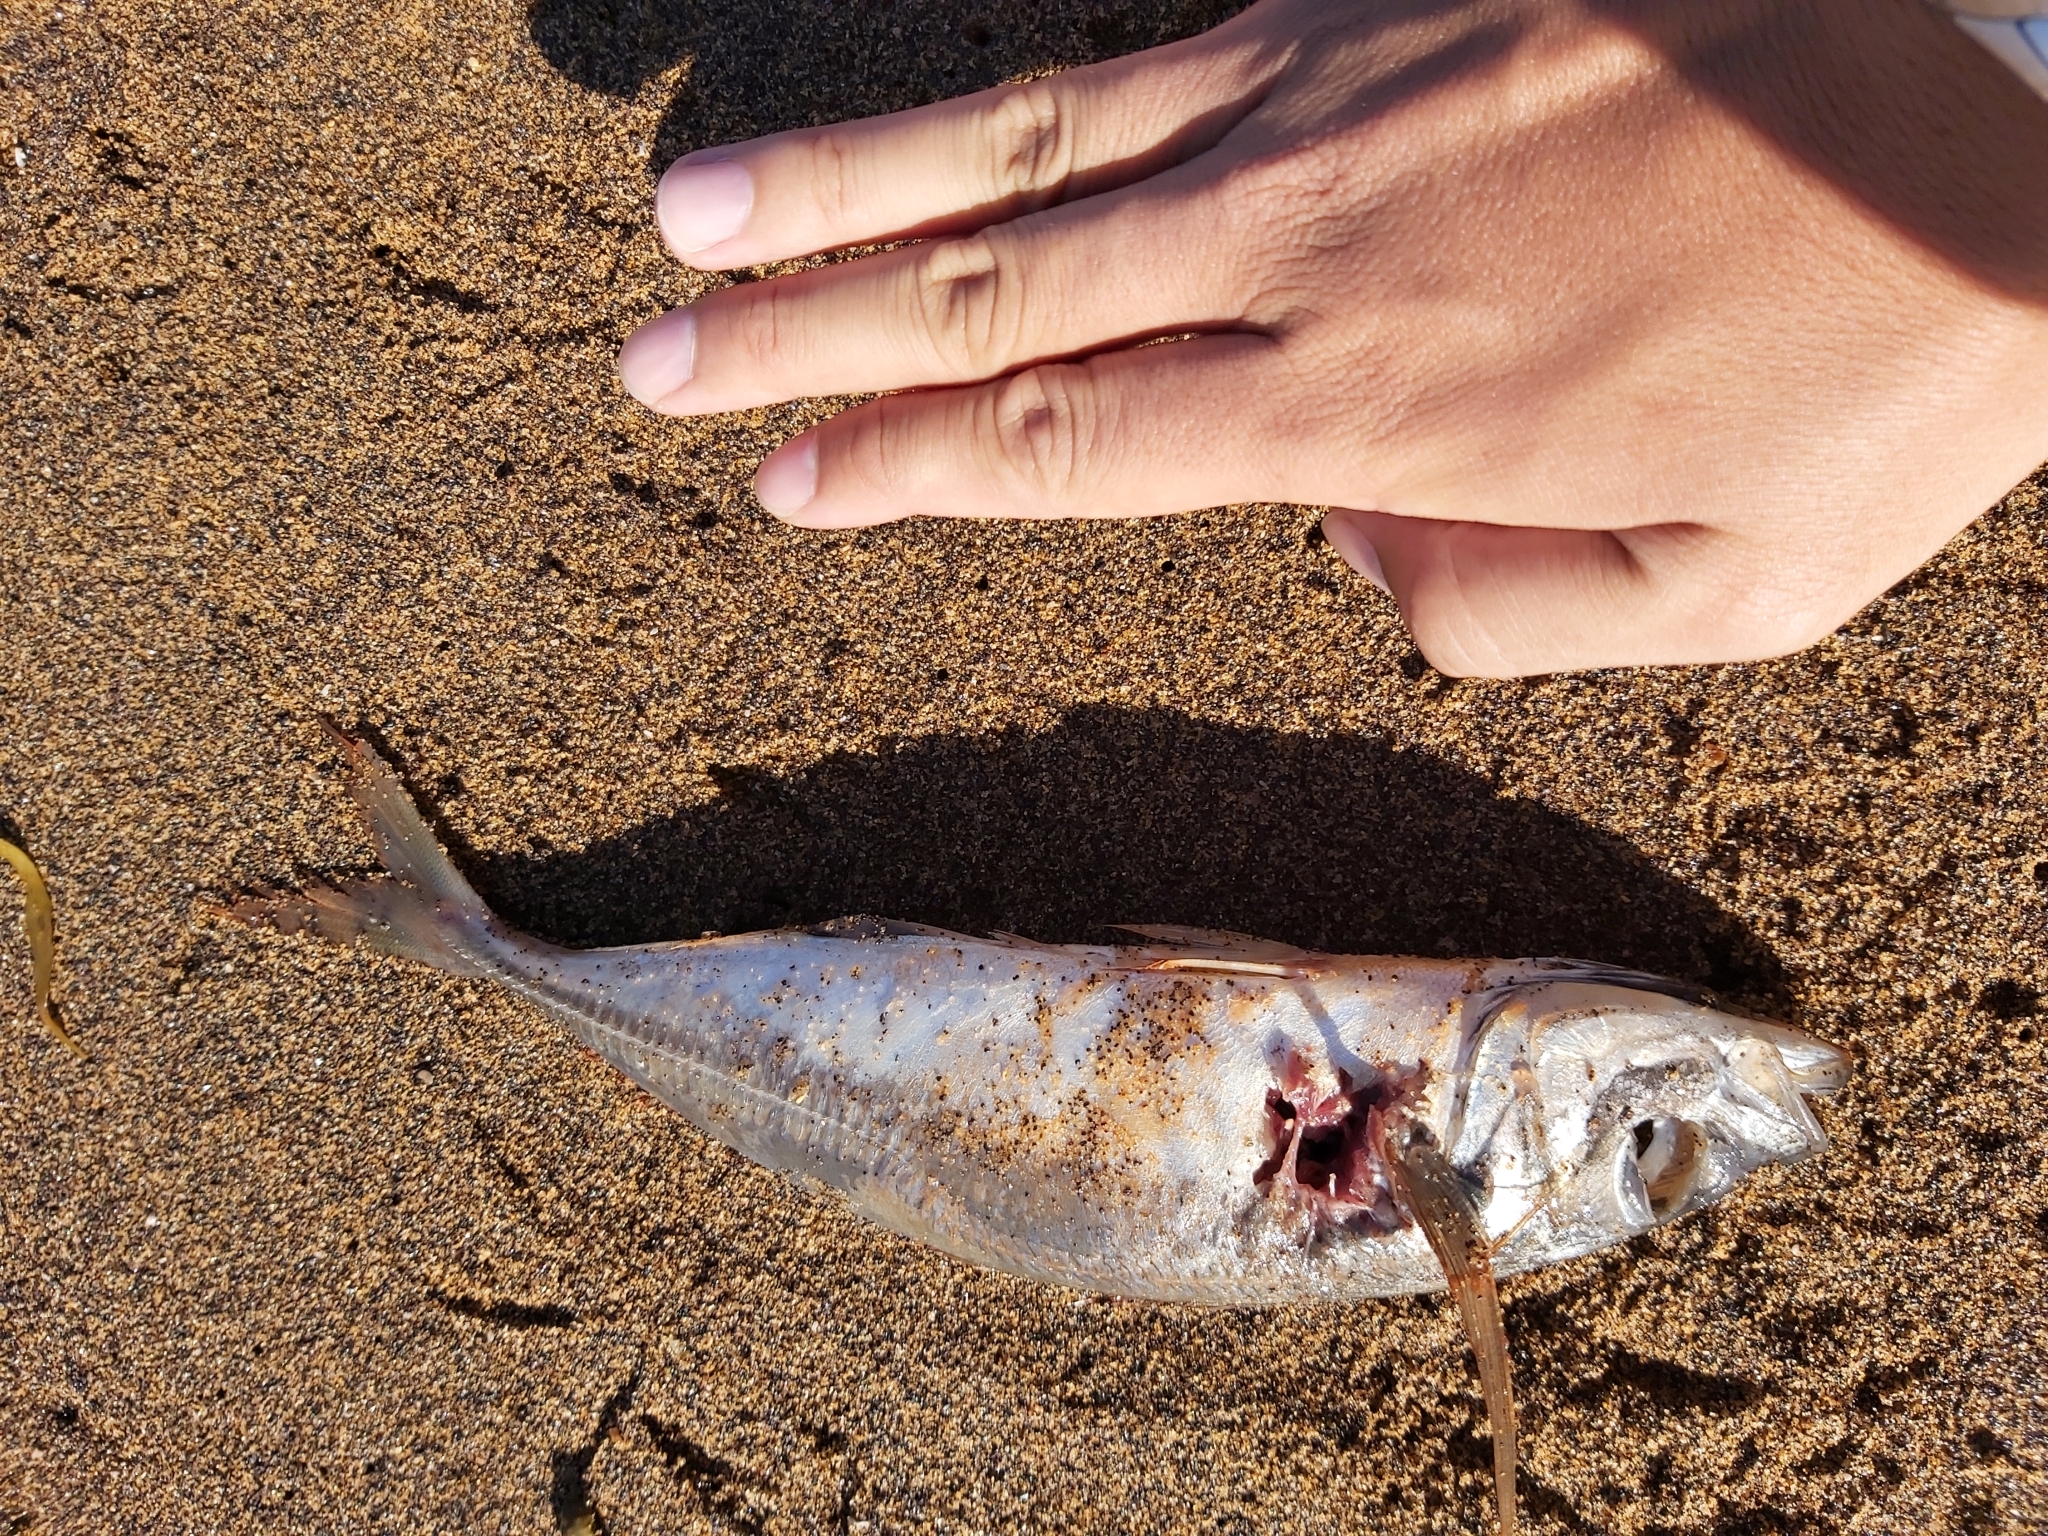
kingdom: Animalia
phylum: Chordata
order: Perciformes
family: Carangidae
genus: Trachurus
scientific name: Trachurus novaezelandiae
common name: Yellowtail horse mackerel
